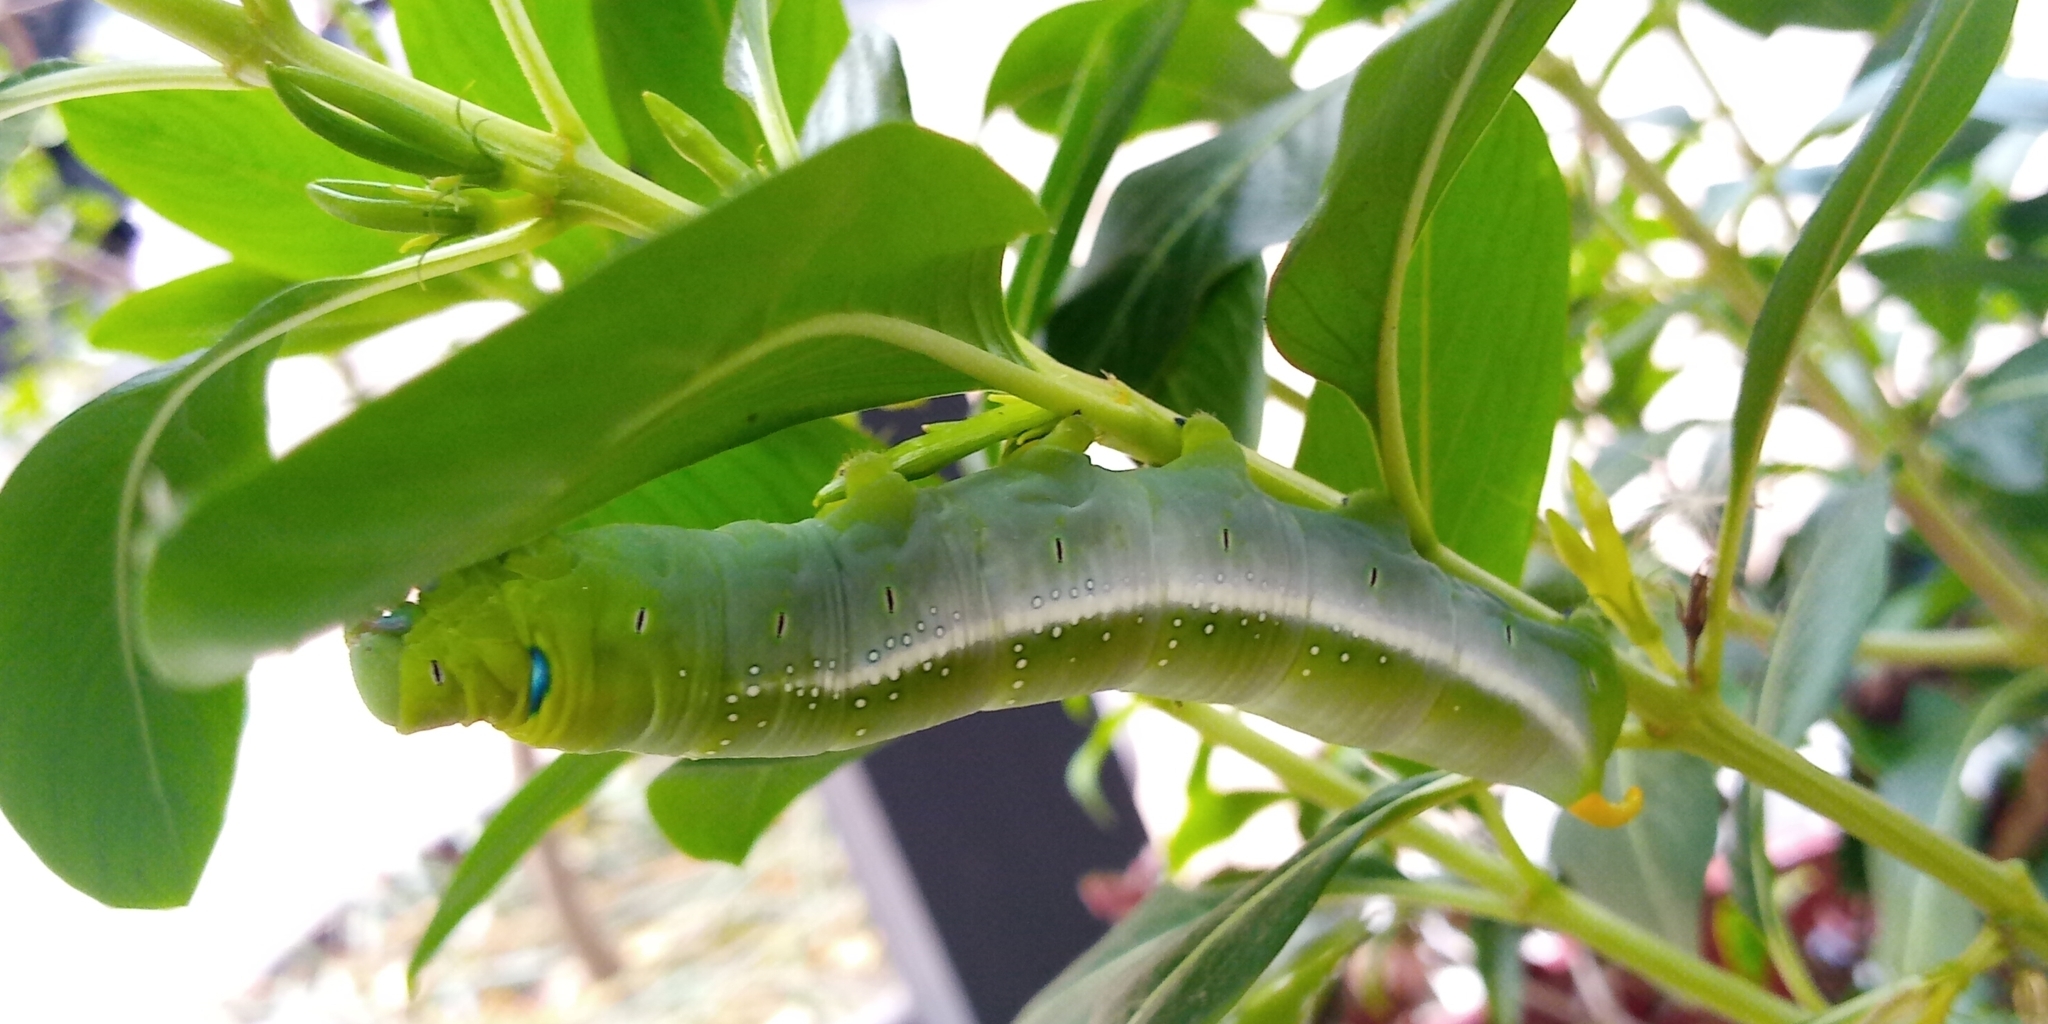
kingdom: Animalia
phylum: Arthropoda
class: Insecta
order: Lepidoptera
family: Sphingidae
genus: Daphnis
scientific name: Daphnis nerii
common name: Oleander hawk-moth
